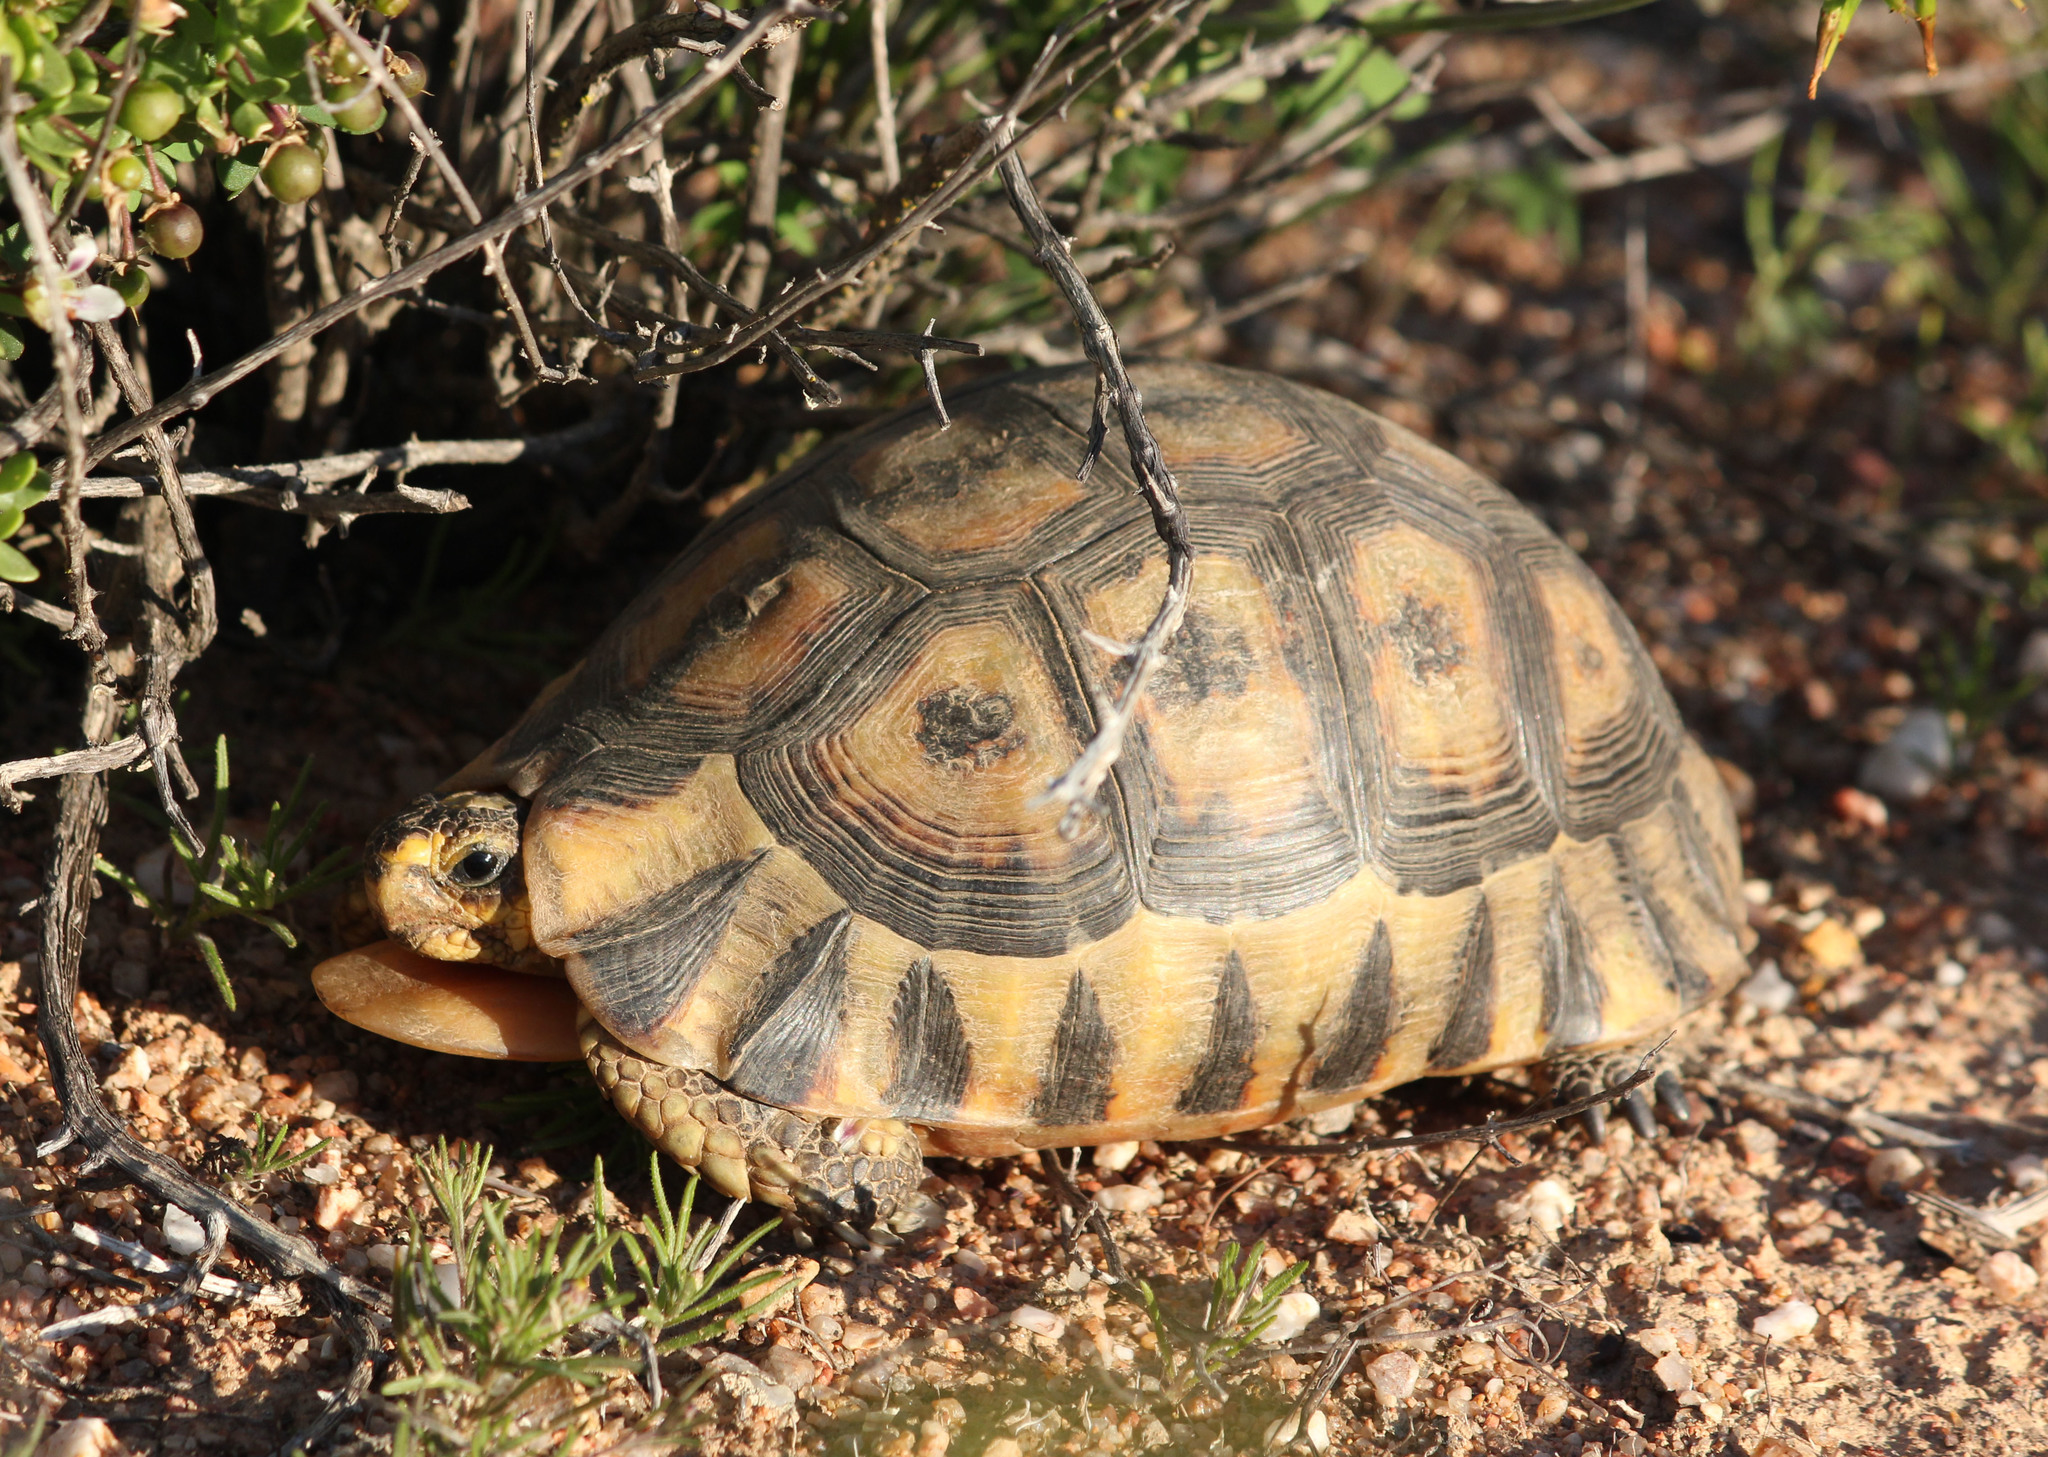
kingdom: Animalia
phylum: Chordata
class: Testudines
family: Testudinidae
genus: Chersina
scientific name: Chersina angulata
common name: South african bowsprit tortoise
